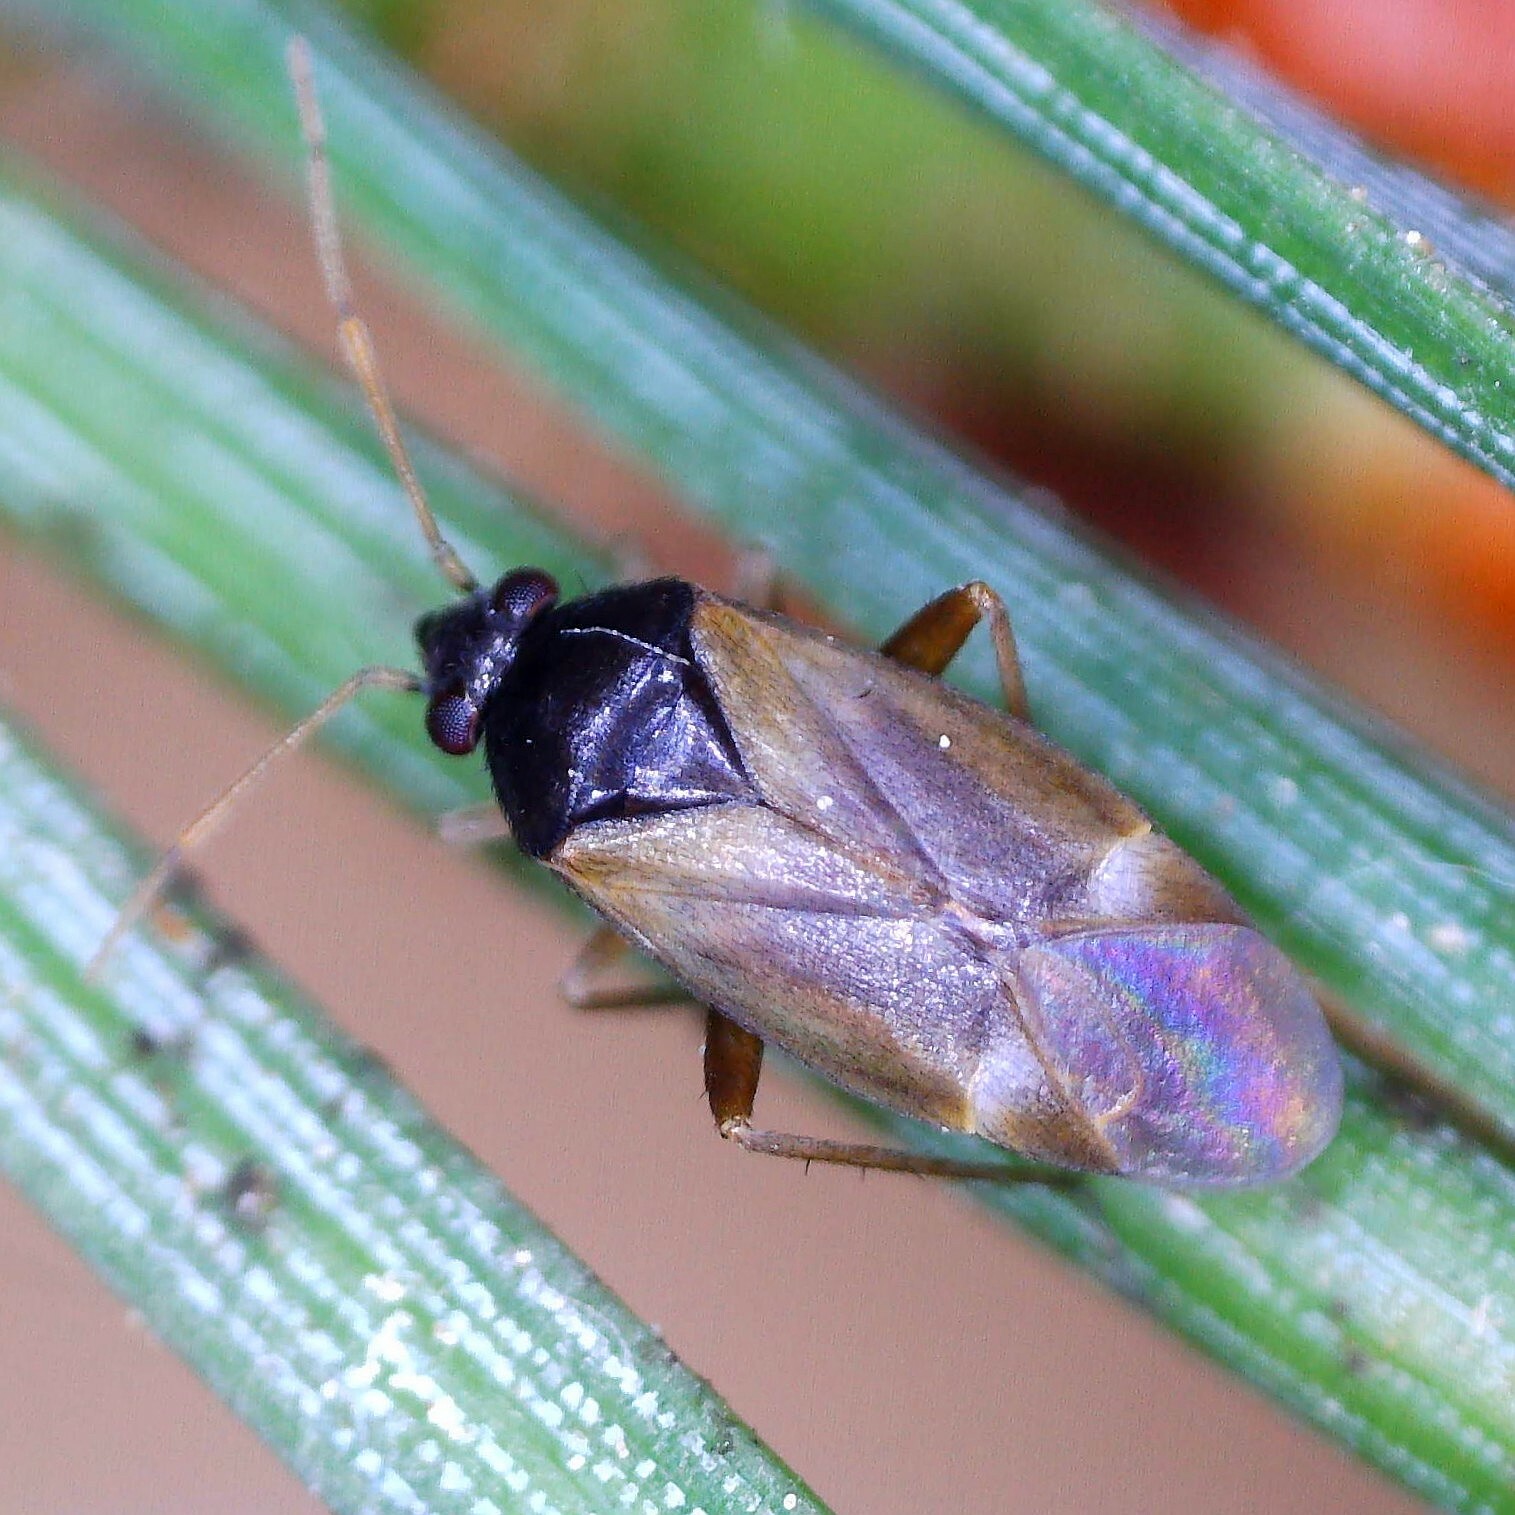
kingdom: Animalia
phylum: Arthropoda
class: Insecta
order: Hemiptera
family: Miridae
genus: Plesiodema
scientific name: Plesiodema pinetella
